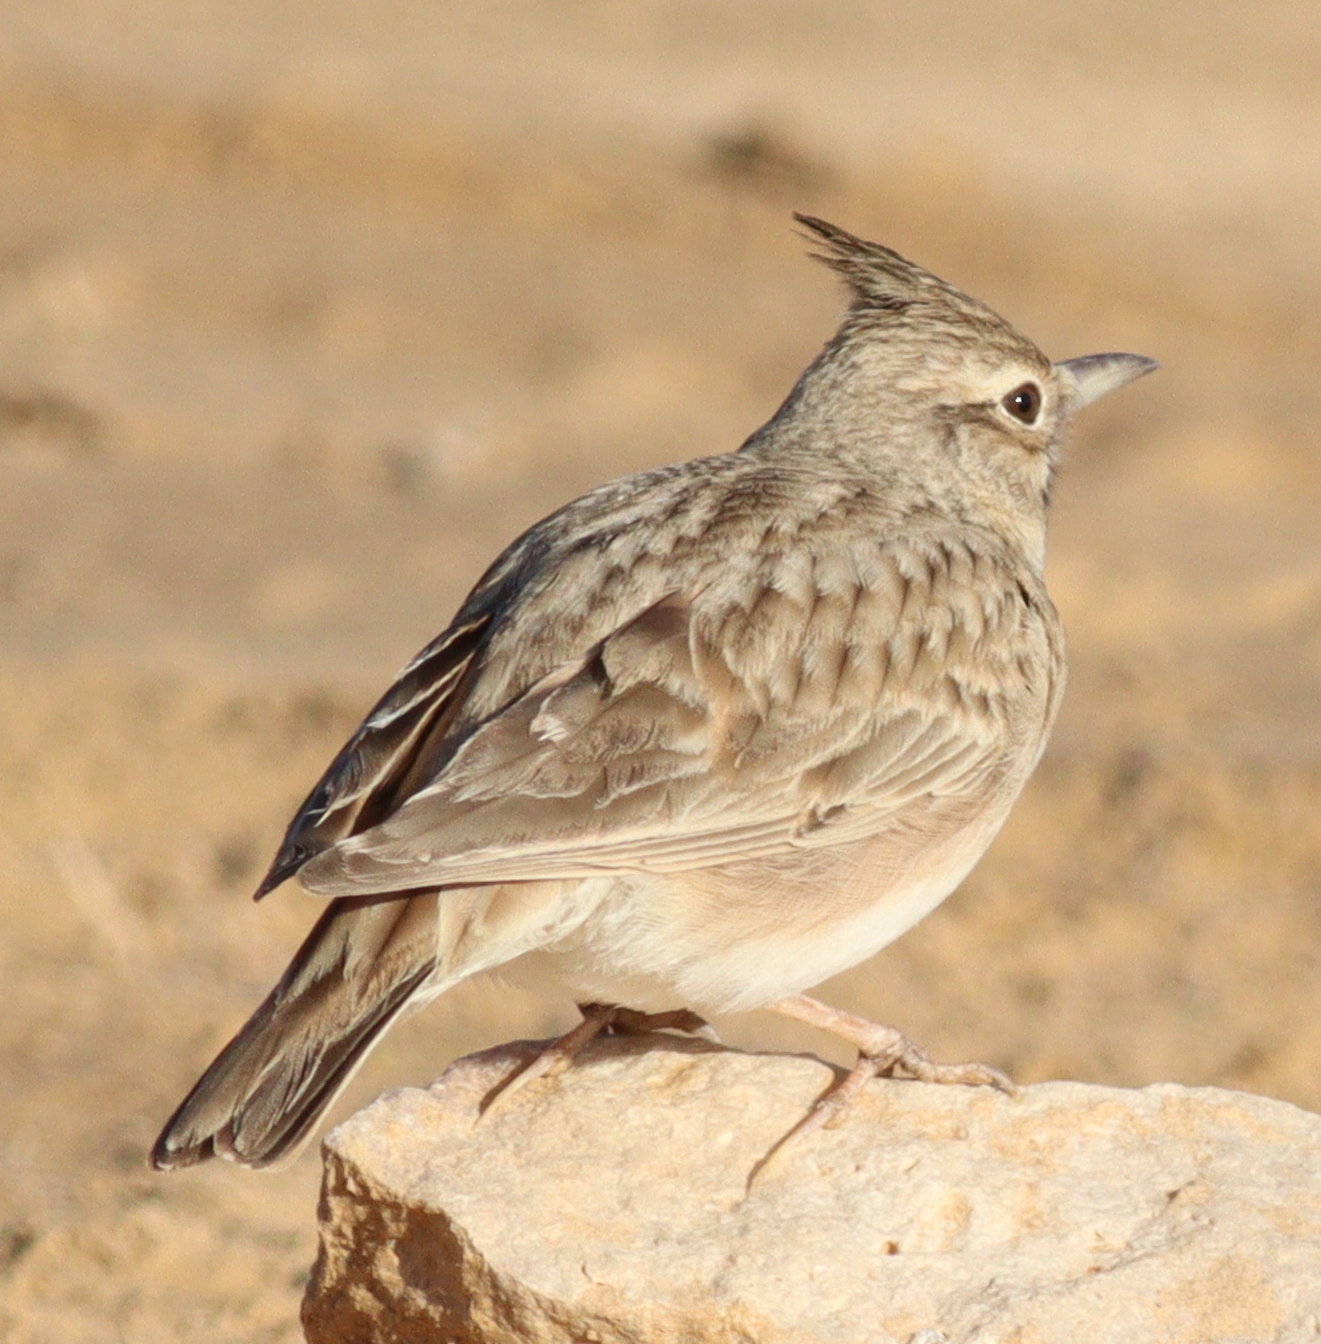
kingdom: Animalia
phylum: Chordata
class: Aves
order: Passeriformes
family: Alaudidae
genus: Galerida
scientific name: Galerida cristata
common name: Crested lark
